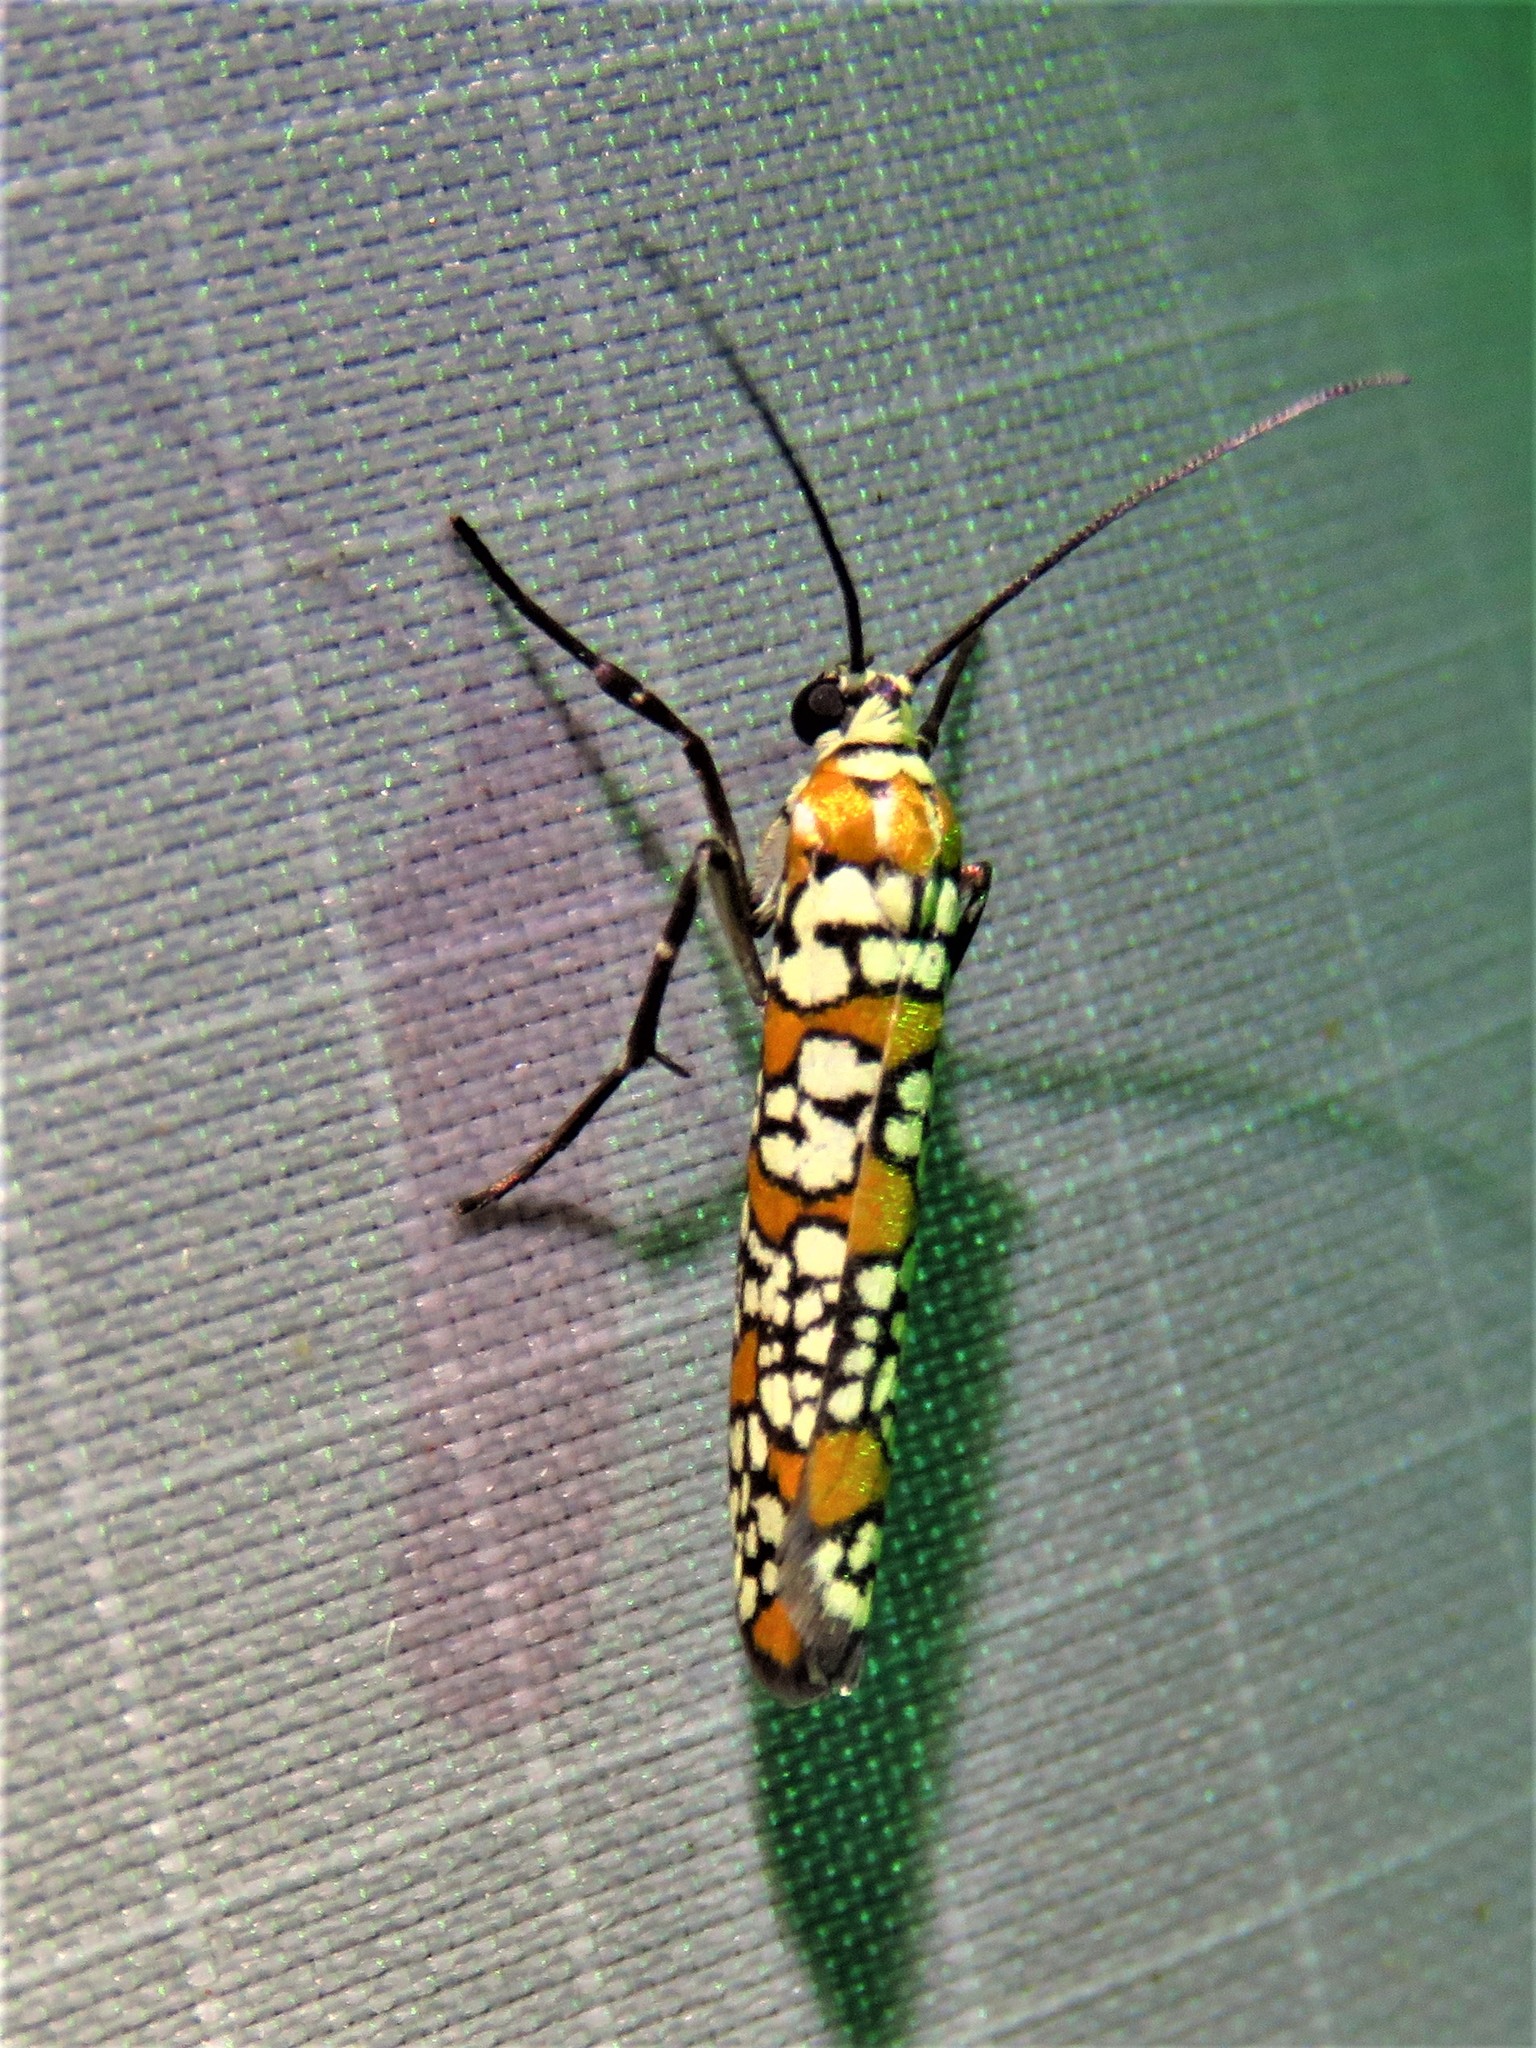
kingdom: Animalia
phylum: Arthropoda
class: Insecta
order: Lepidoptera
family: Attevidae
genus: Atteva
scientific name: Atteva punctella
